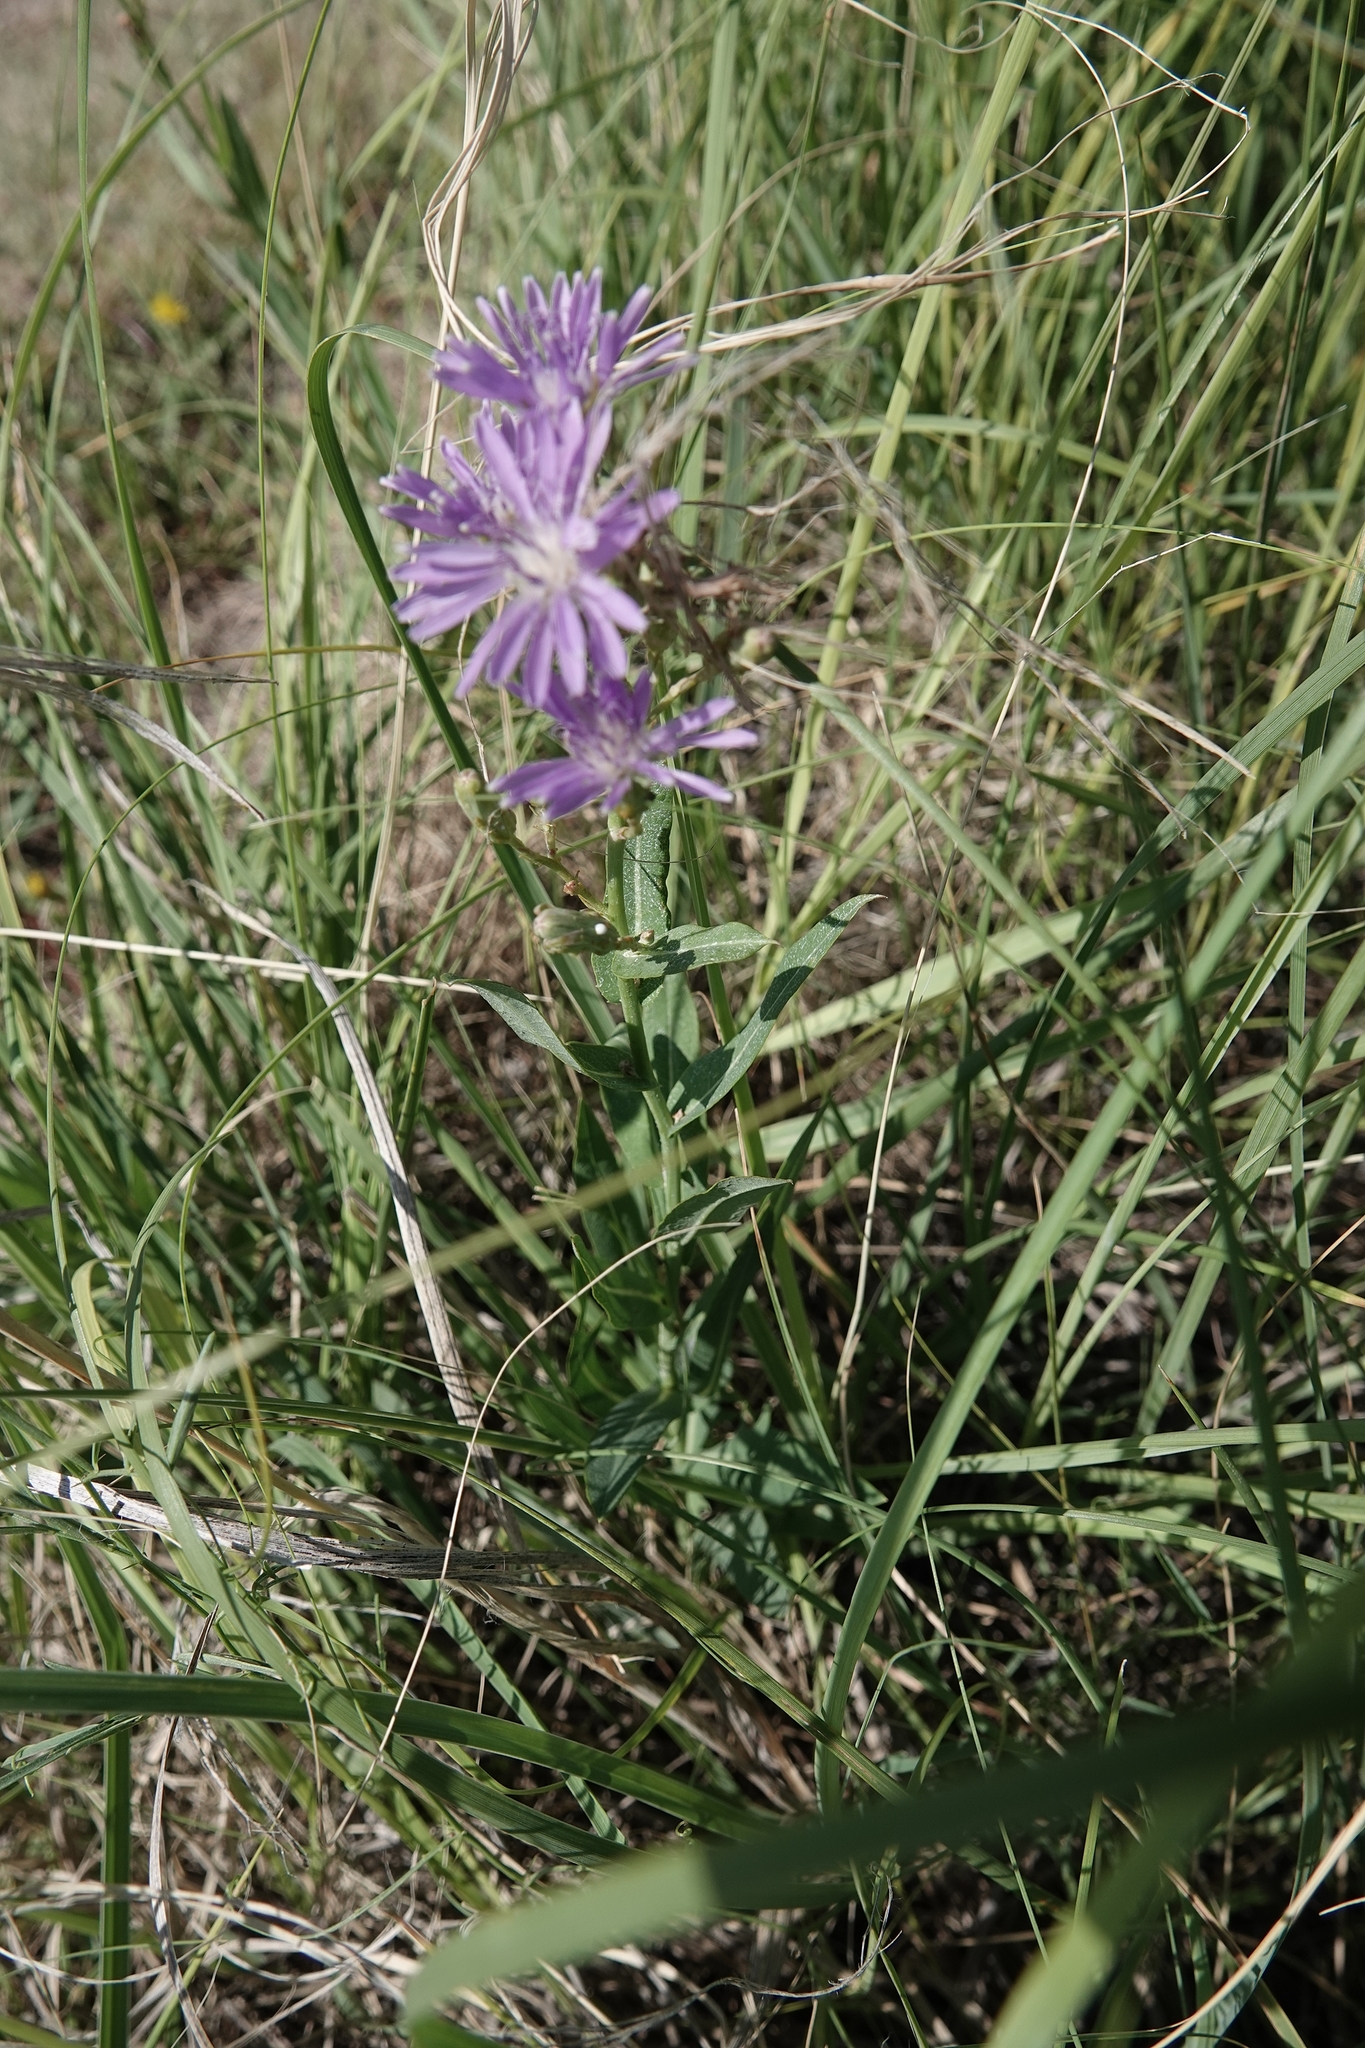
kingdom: Plantae
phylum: Tracheophyta
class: Magnoliopsida
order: Asterales
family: Asteraceae
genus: Lactuca
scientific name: Lactuca pulchella
